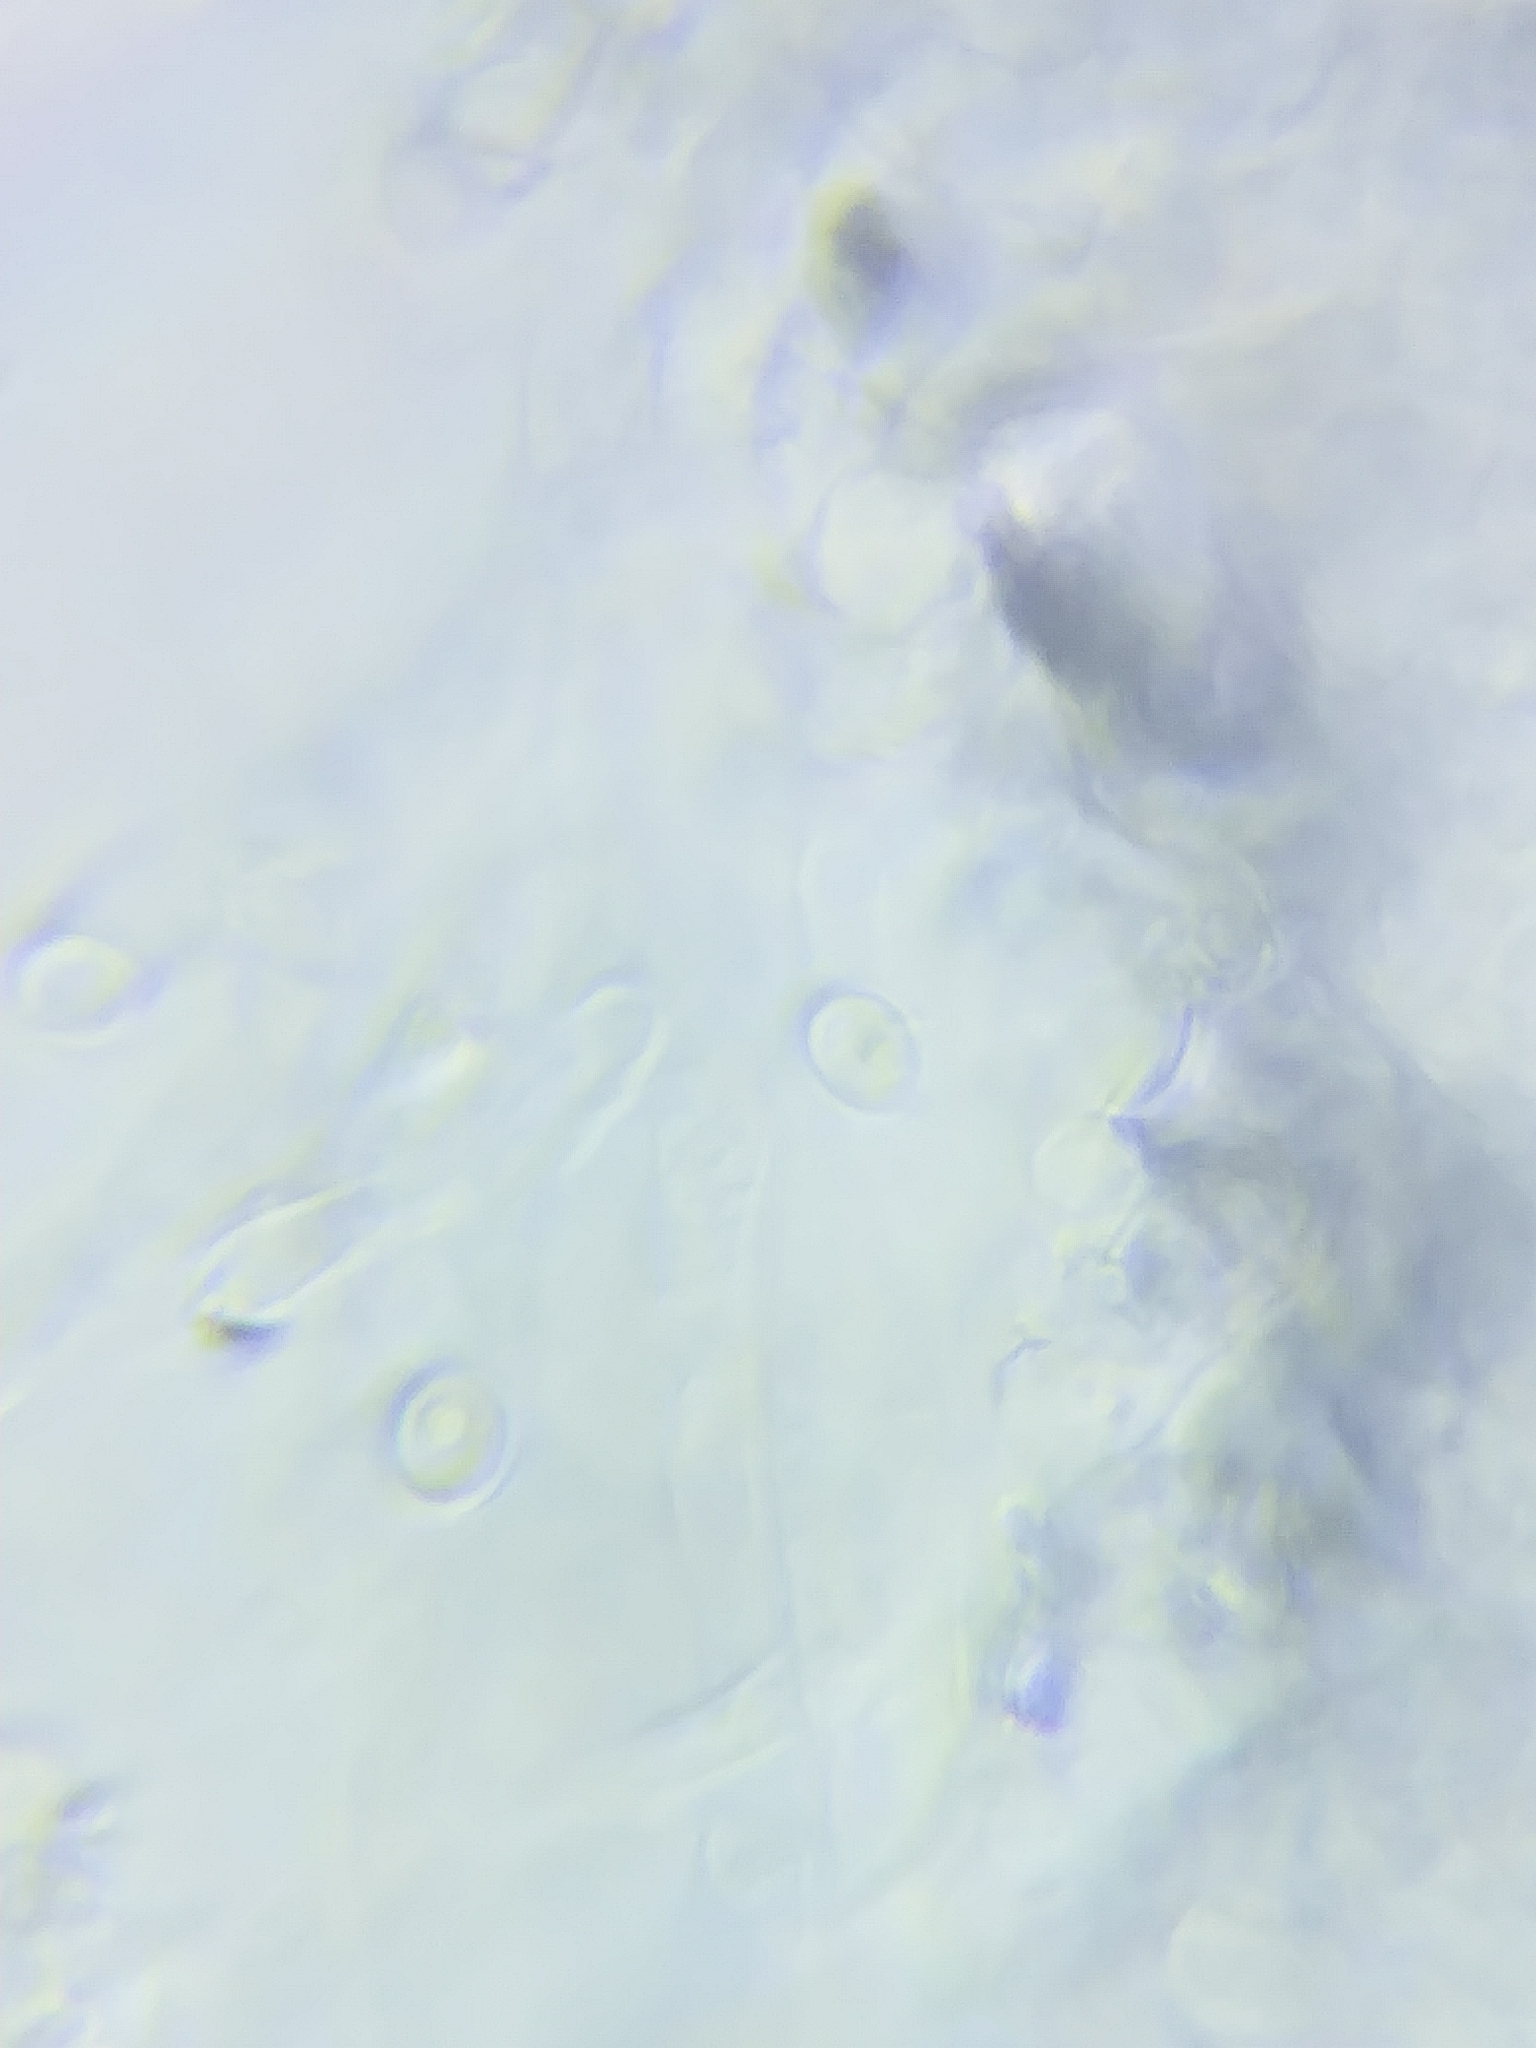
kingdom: Fungi
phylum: Basidiomycota
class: Agaricomycetes
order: Agaricales
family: Agaricaceae
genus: Arachnion
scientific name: Arachnion album
